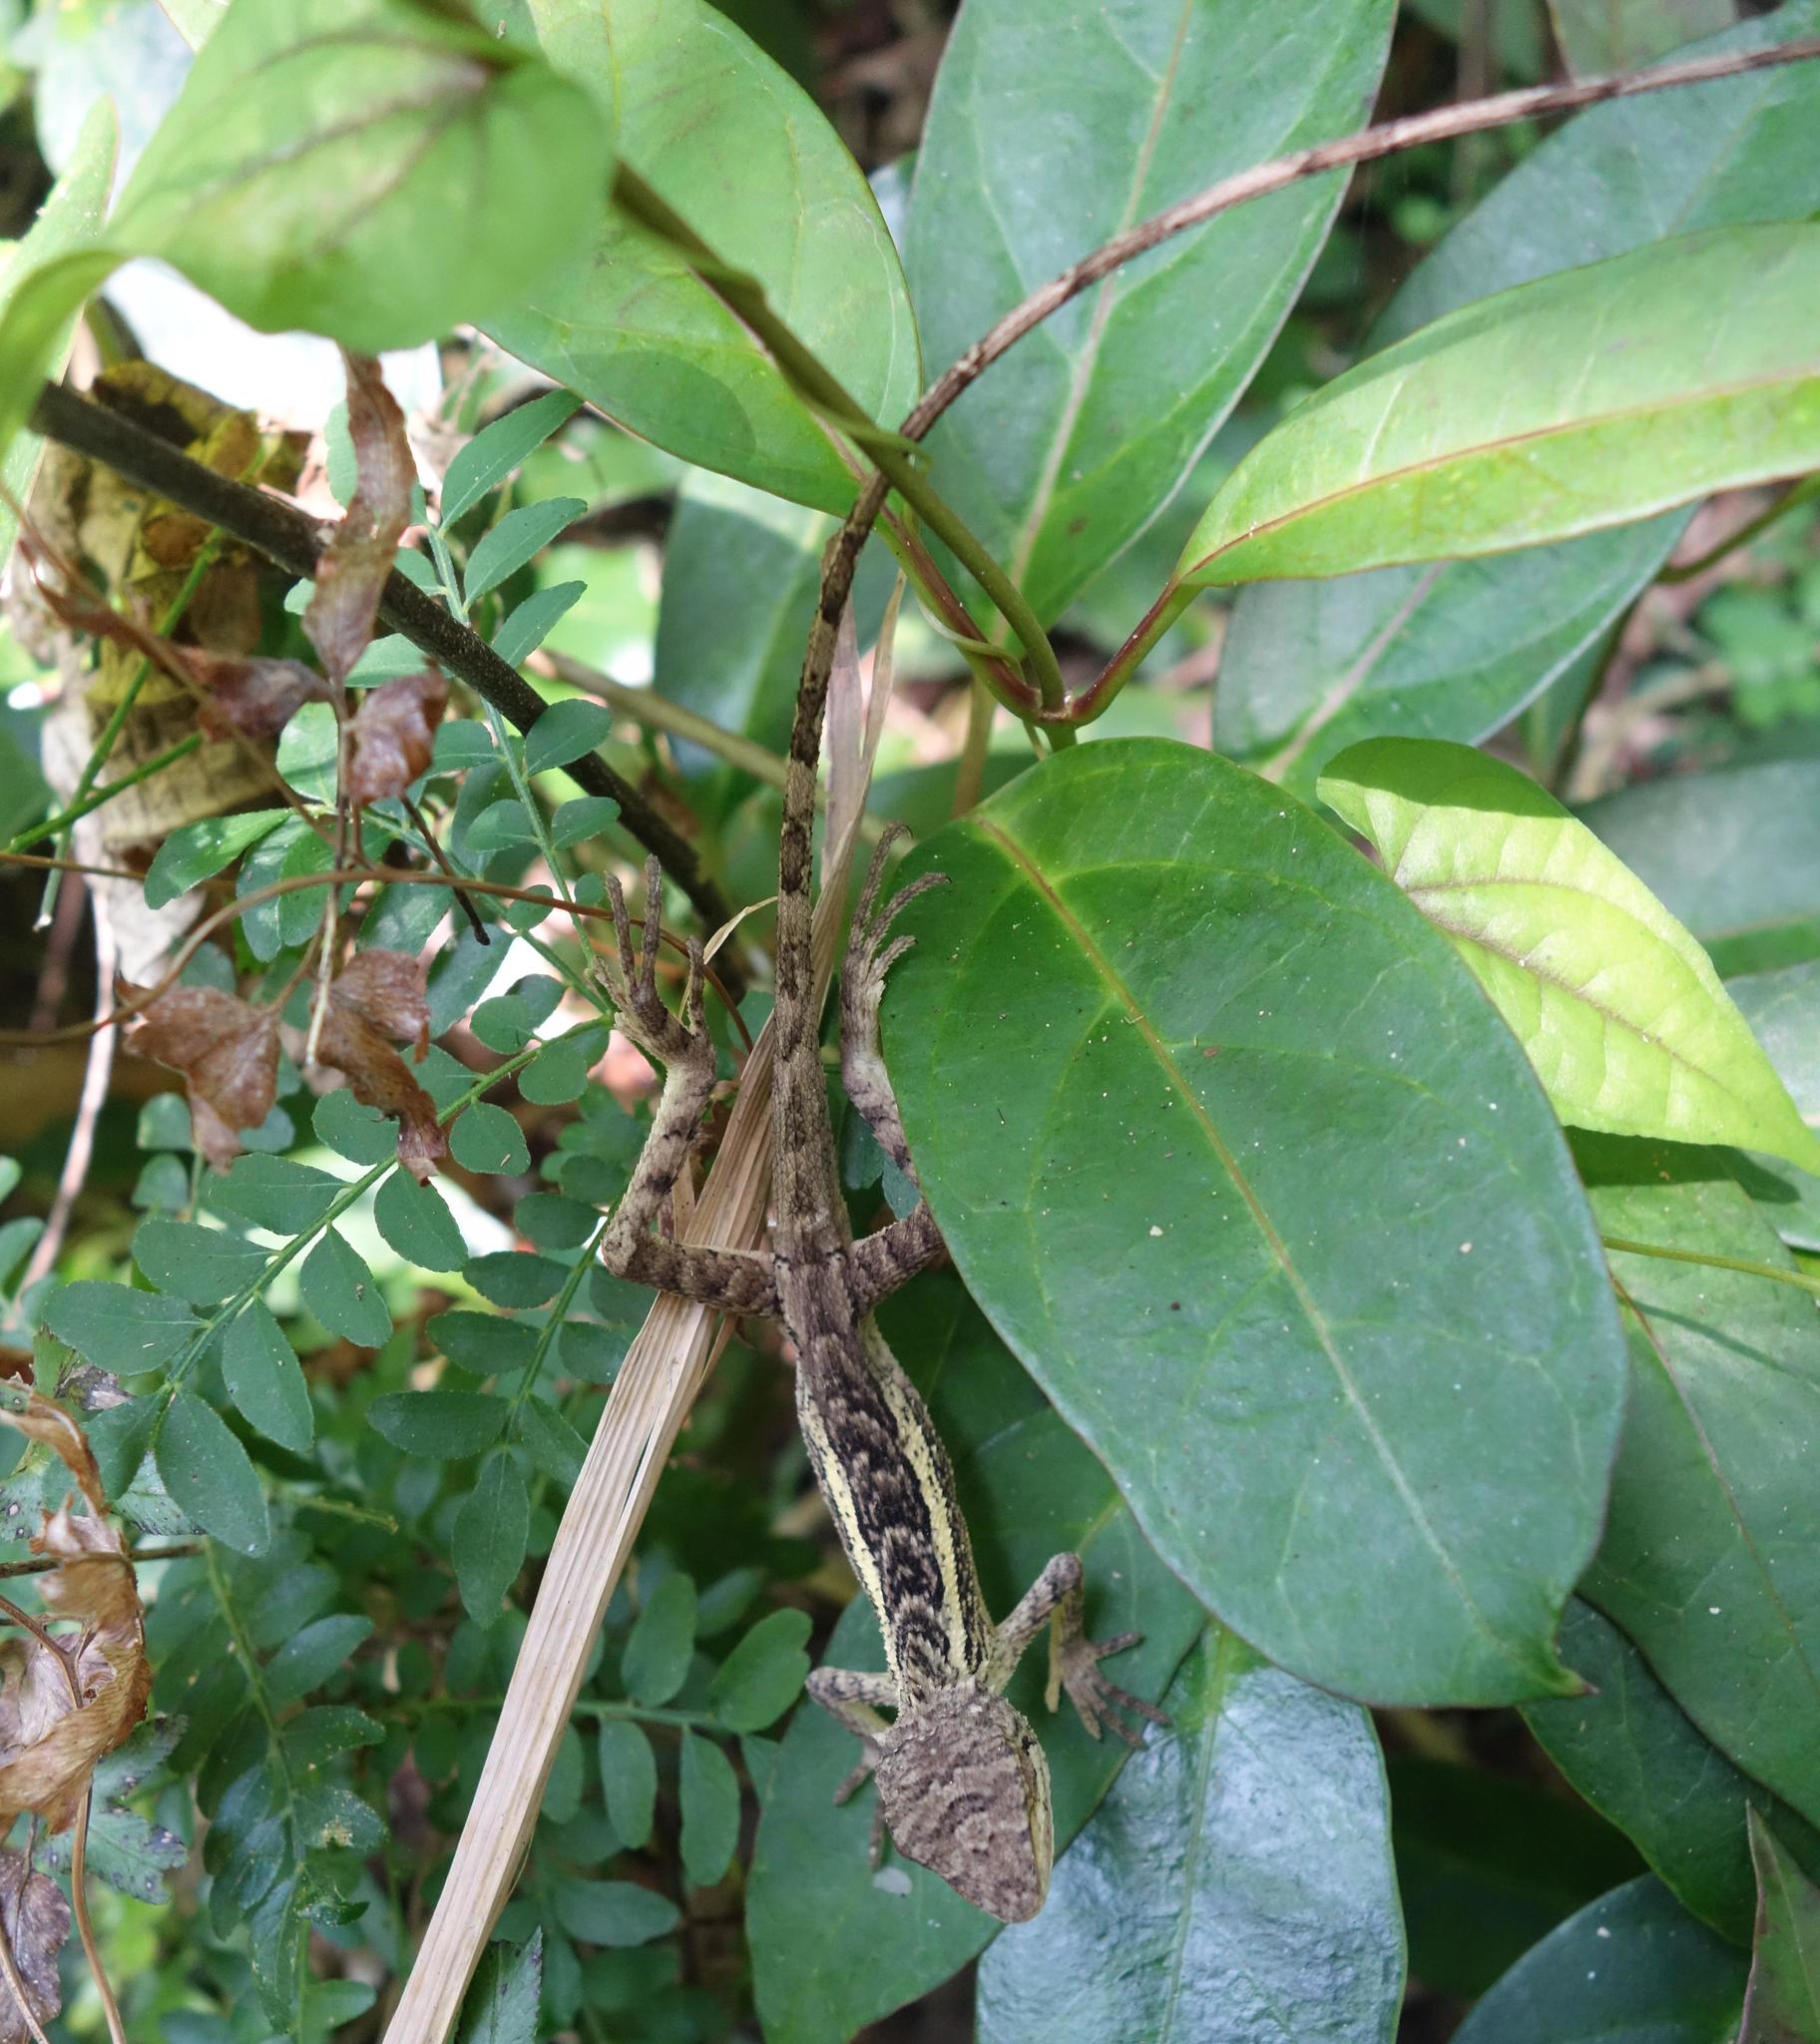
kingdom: Animalia
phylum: Chordata
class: Squamata
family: Agamidae
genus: Diploderma
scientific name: Diploderma swinhonis
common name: Taiwan japalure
